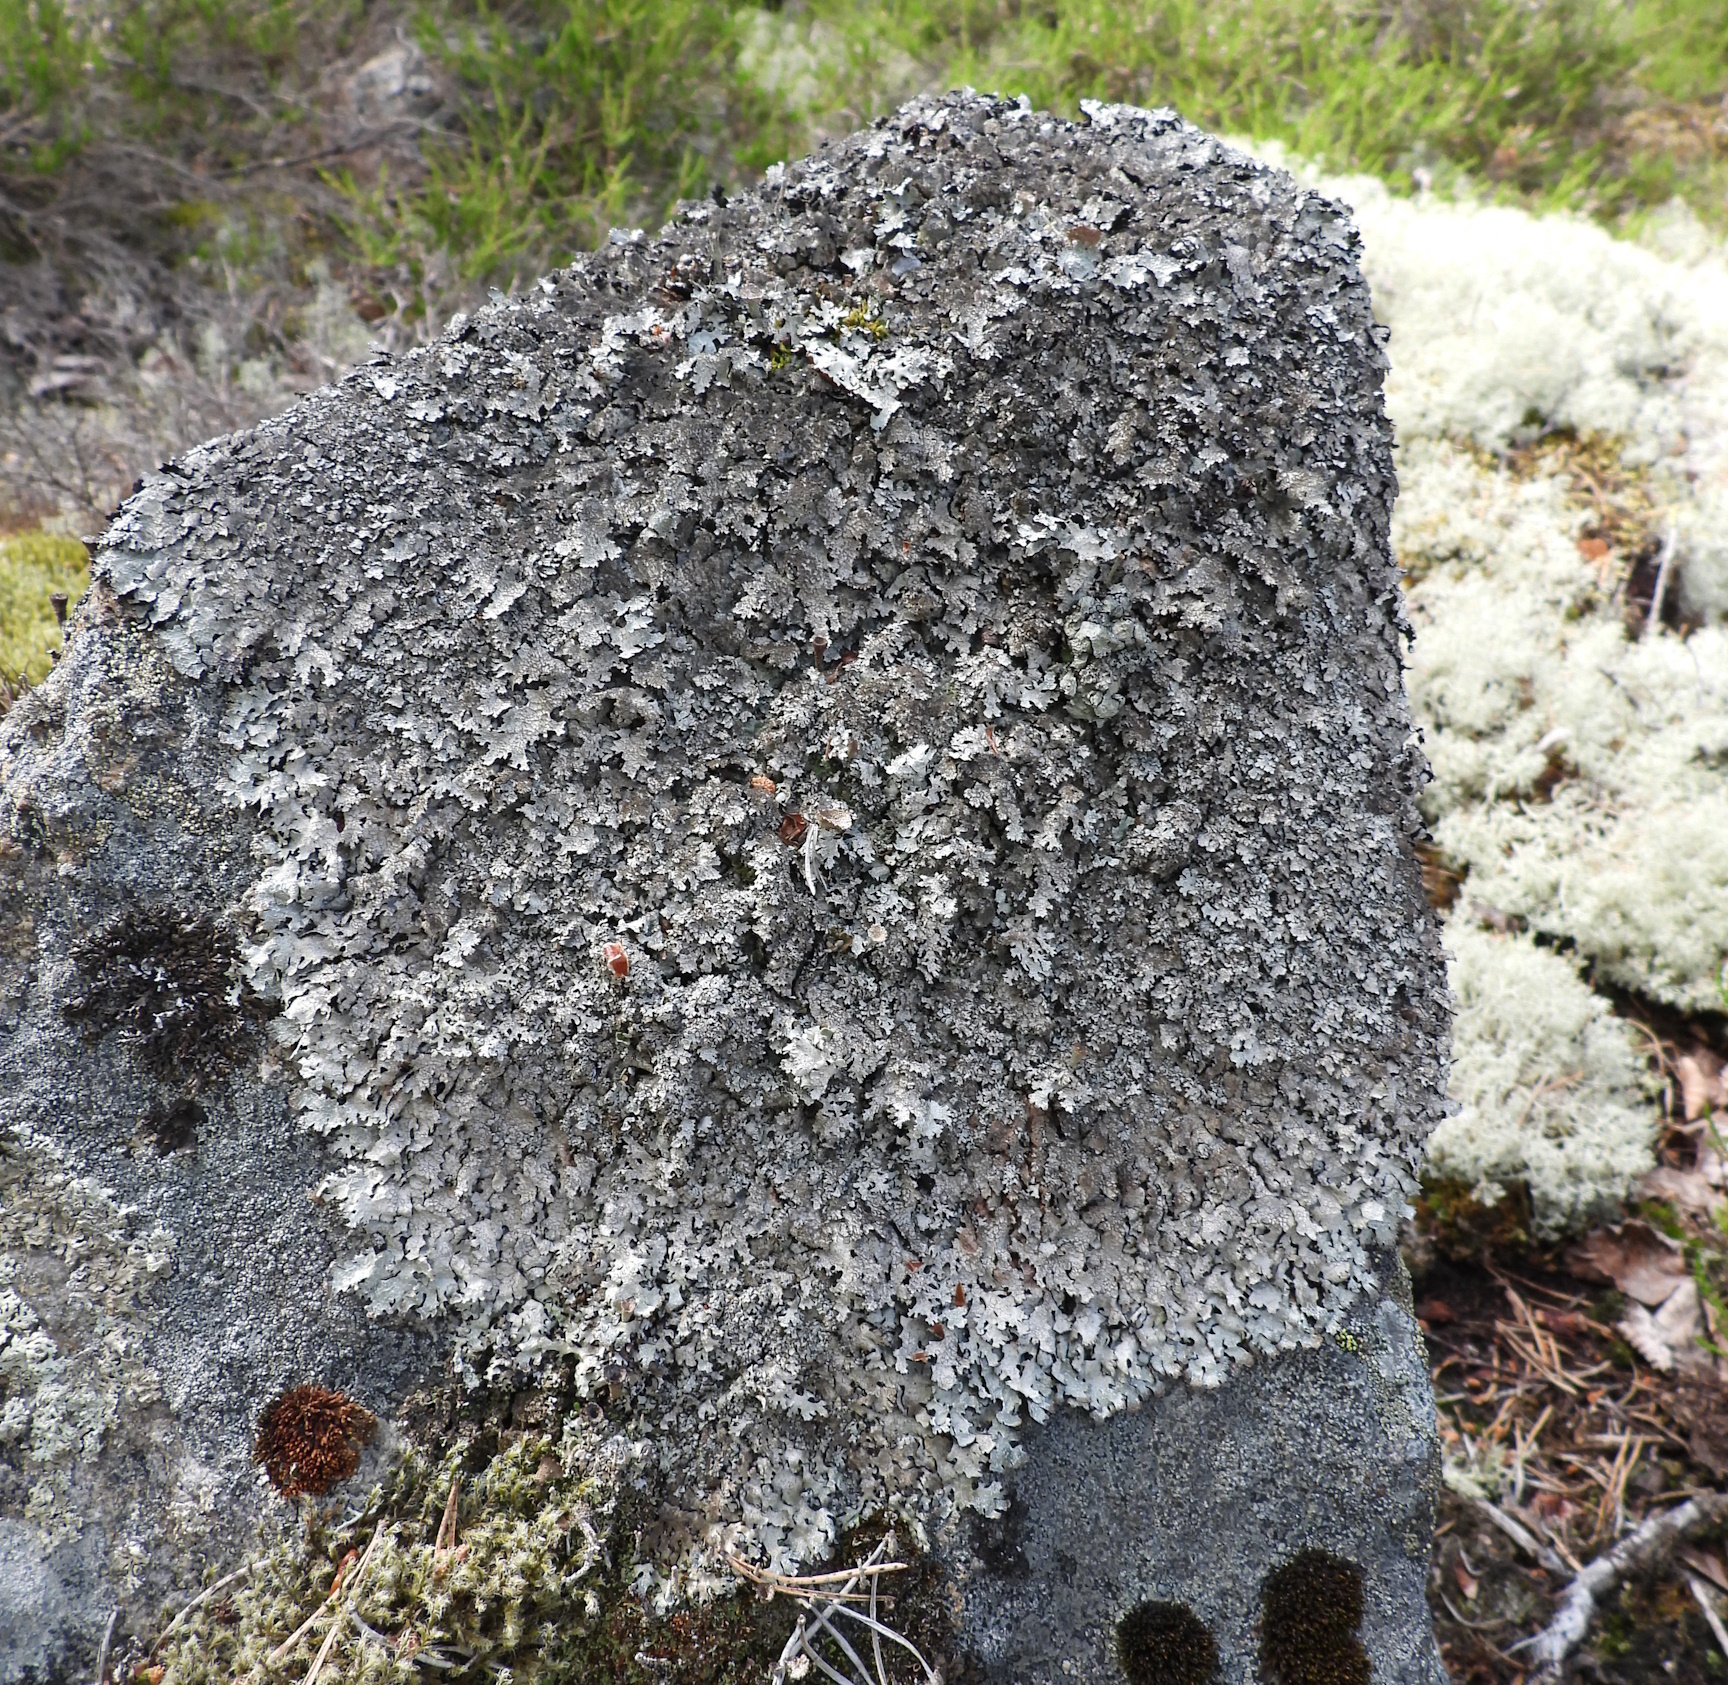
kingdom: Fungi
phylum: Ascomycota
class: Lecanoromycetes
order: Lecanorales
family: Parmeliaceae
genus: Parmelia
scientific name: Parmelia saxatilis
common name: Salted shield lichen
